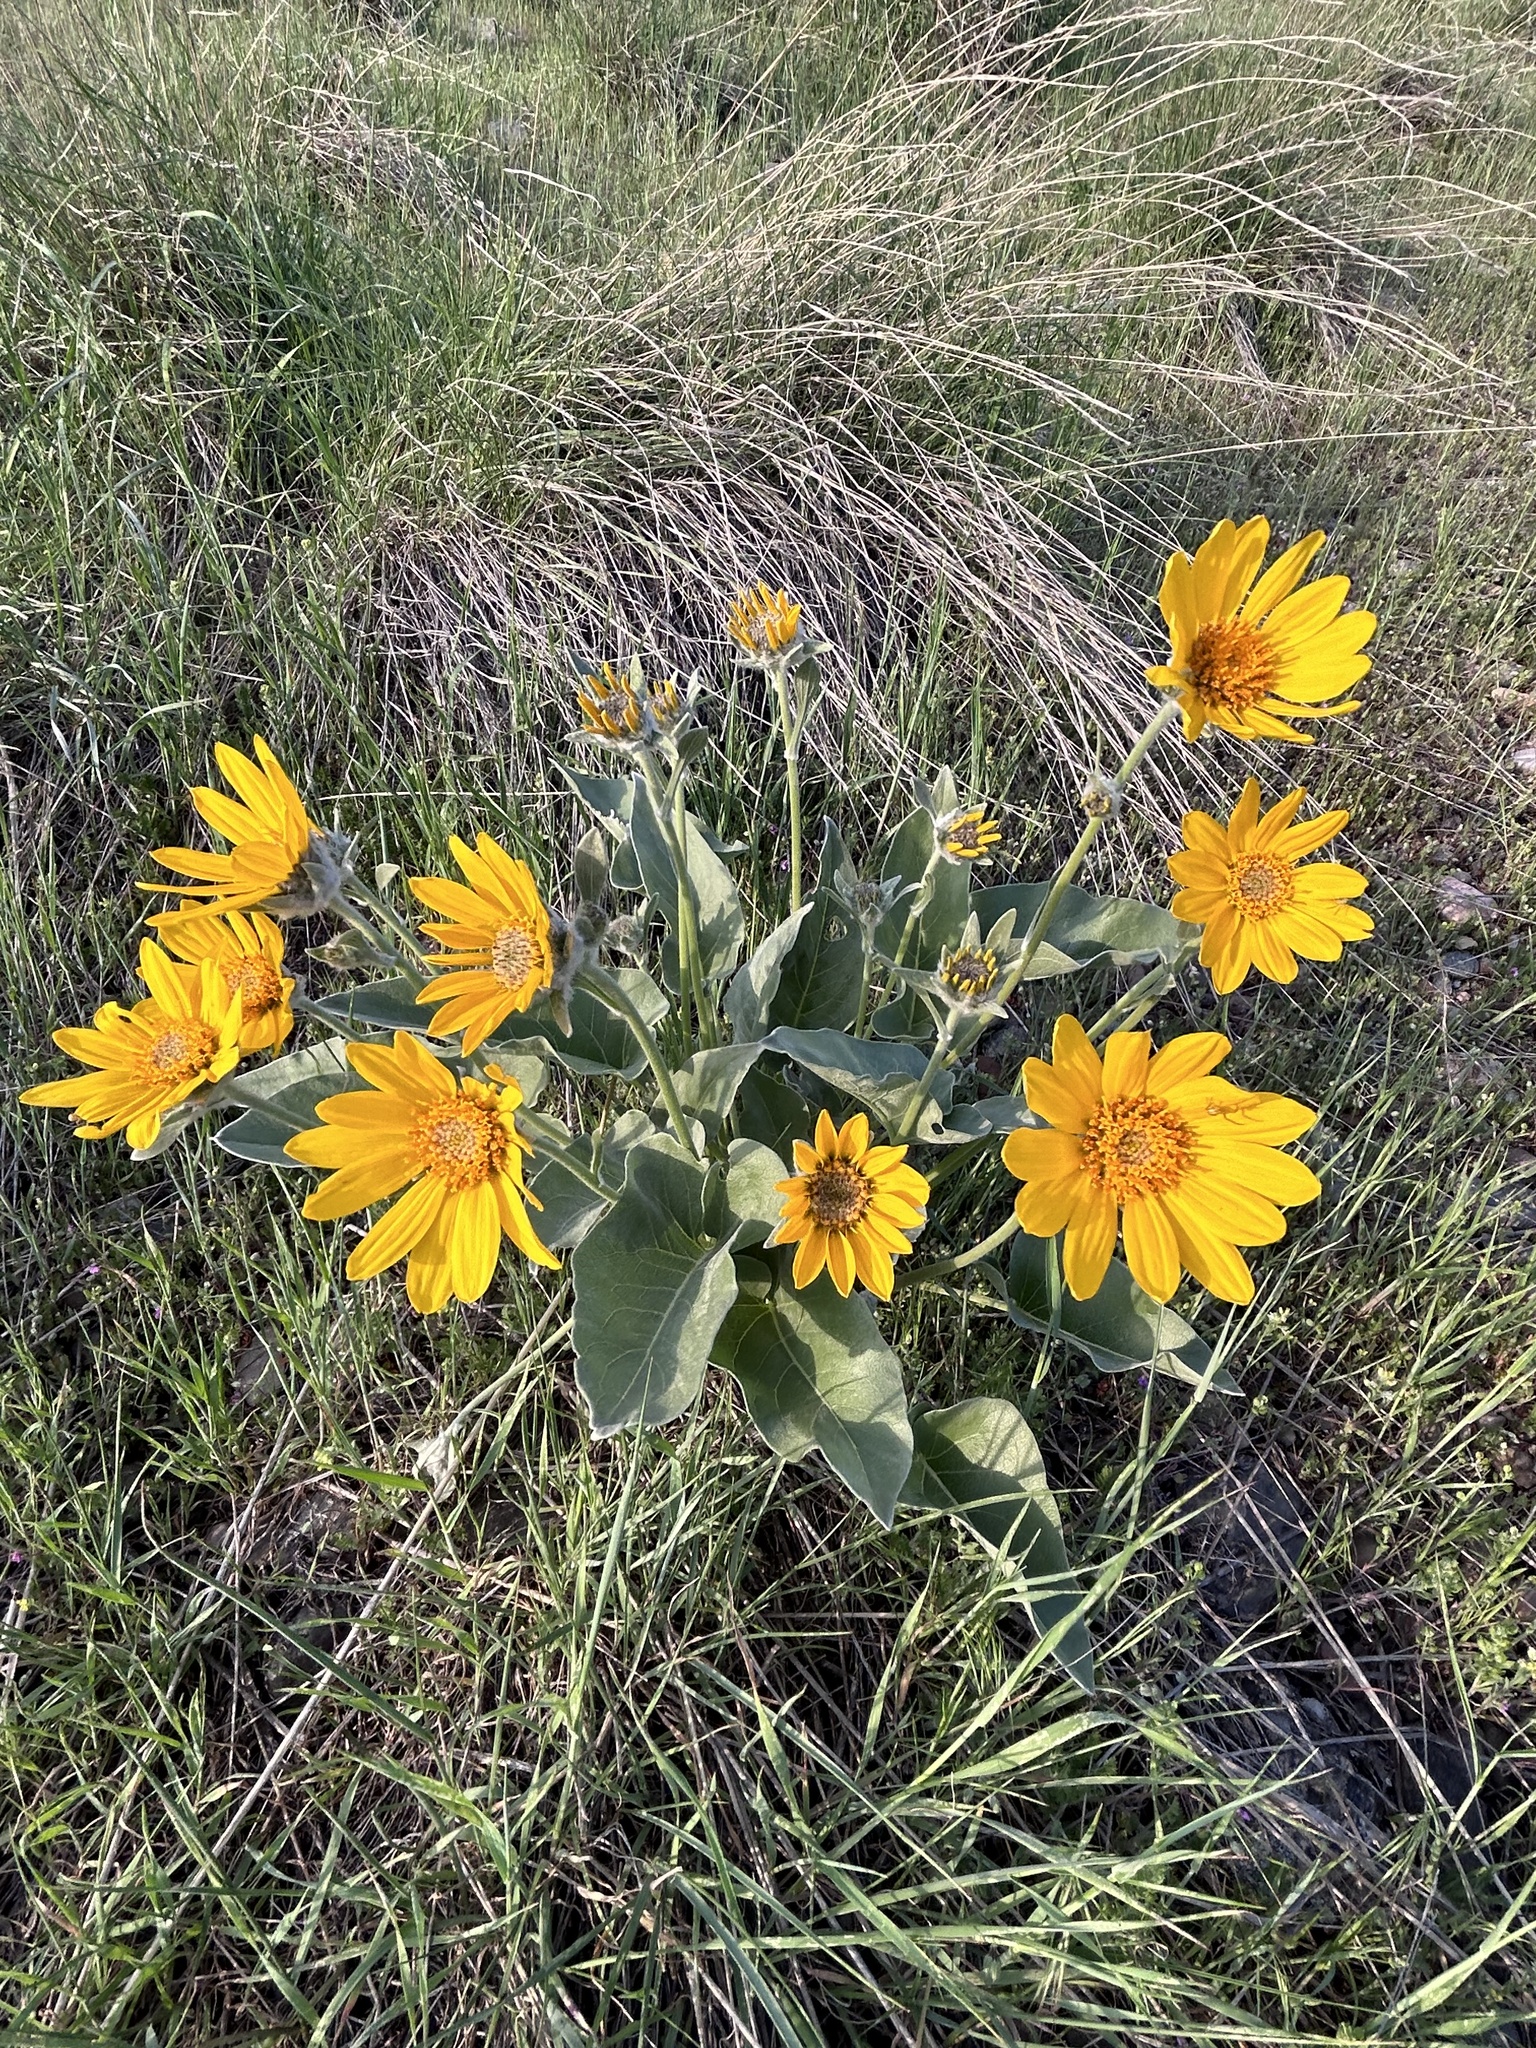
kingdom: Plantae
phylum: Tracheophyta
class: Magnoliopsida
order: Asterales
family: Asteraceae
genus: Wyethia
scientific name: Wyethia sagittata
